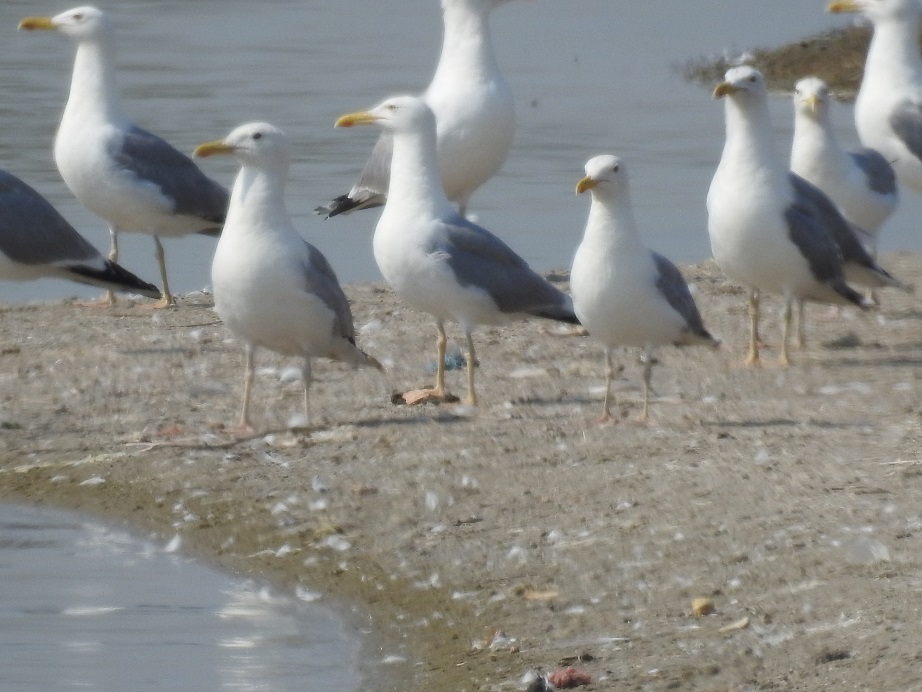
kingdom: Animalia
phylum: Chordata
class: Aves
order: Charadriiformes
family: Laridae
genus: Larus
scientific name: Larus cachinnans
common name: Caspian gull
